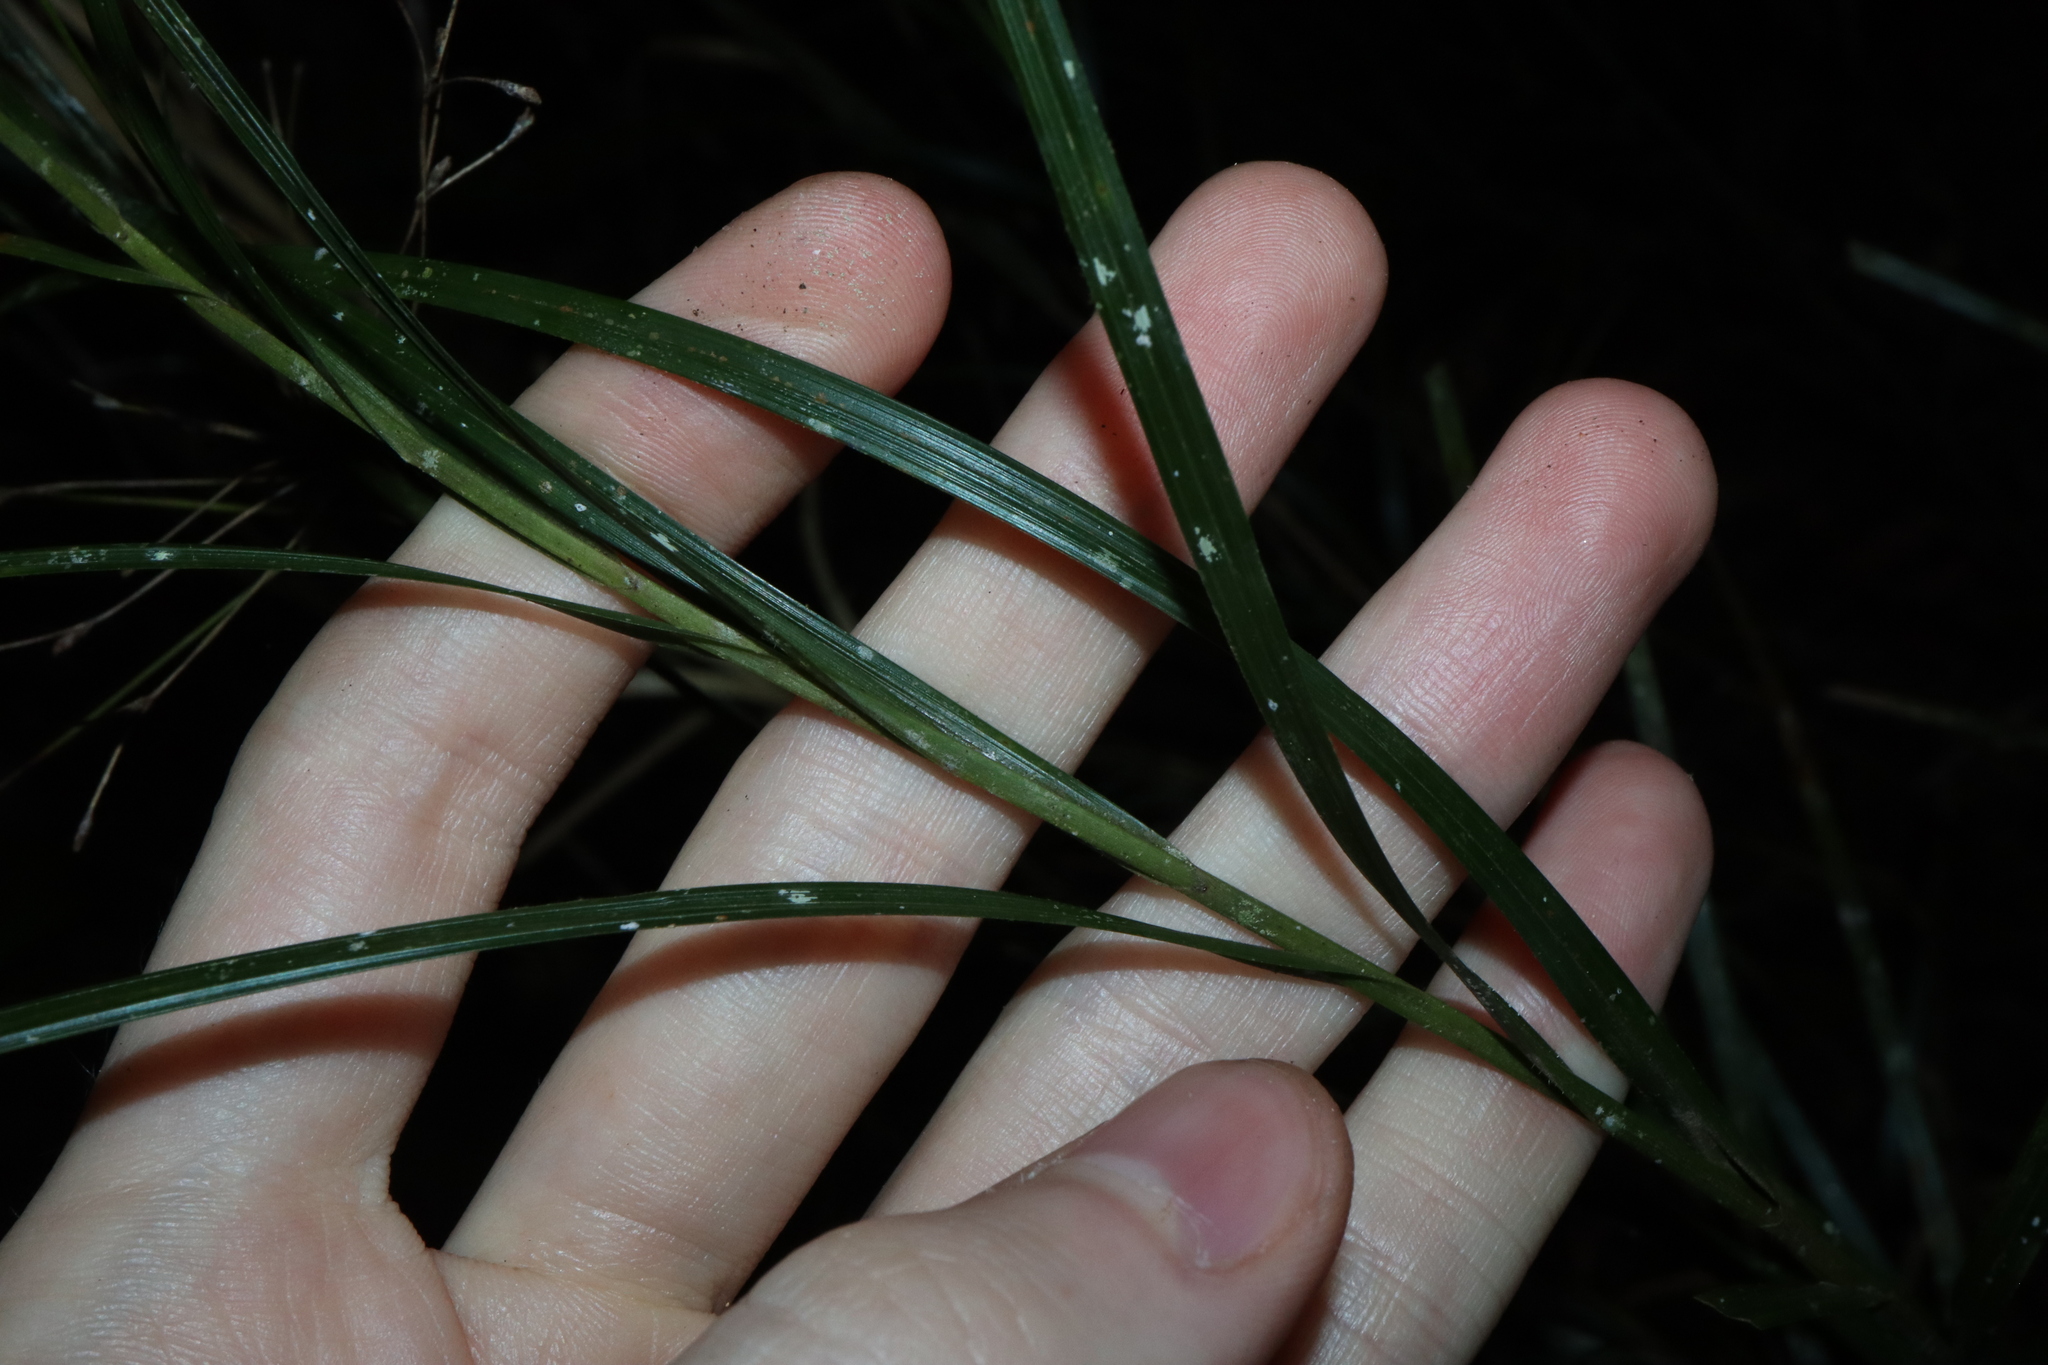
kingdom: Plantae
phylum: Tracheophyta
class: Liliopsida
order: Poales
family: Cyperaceae
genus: Exocarya
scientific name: Exocarya sclerioides
